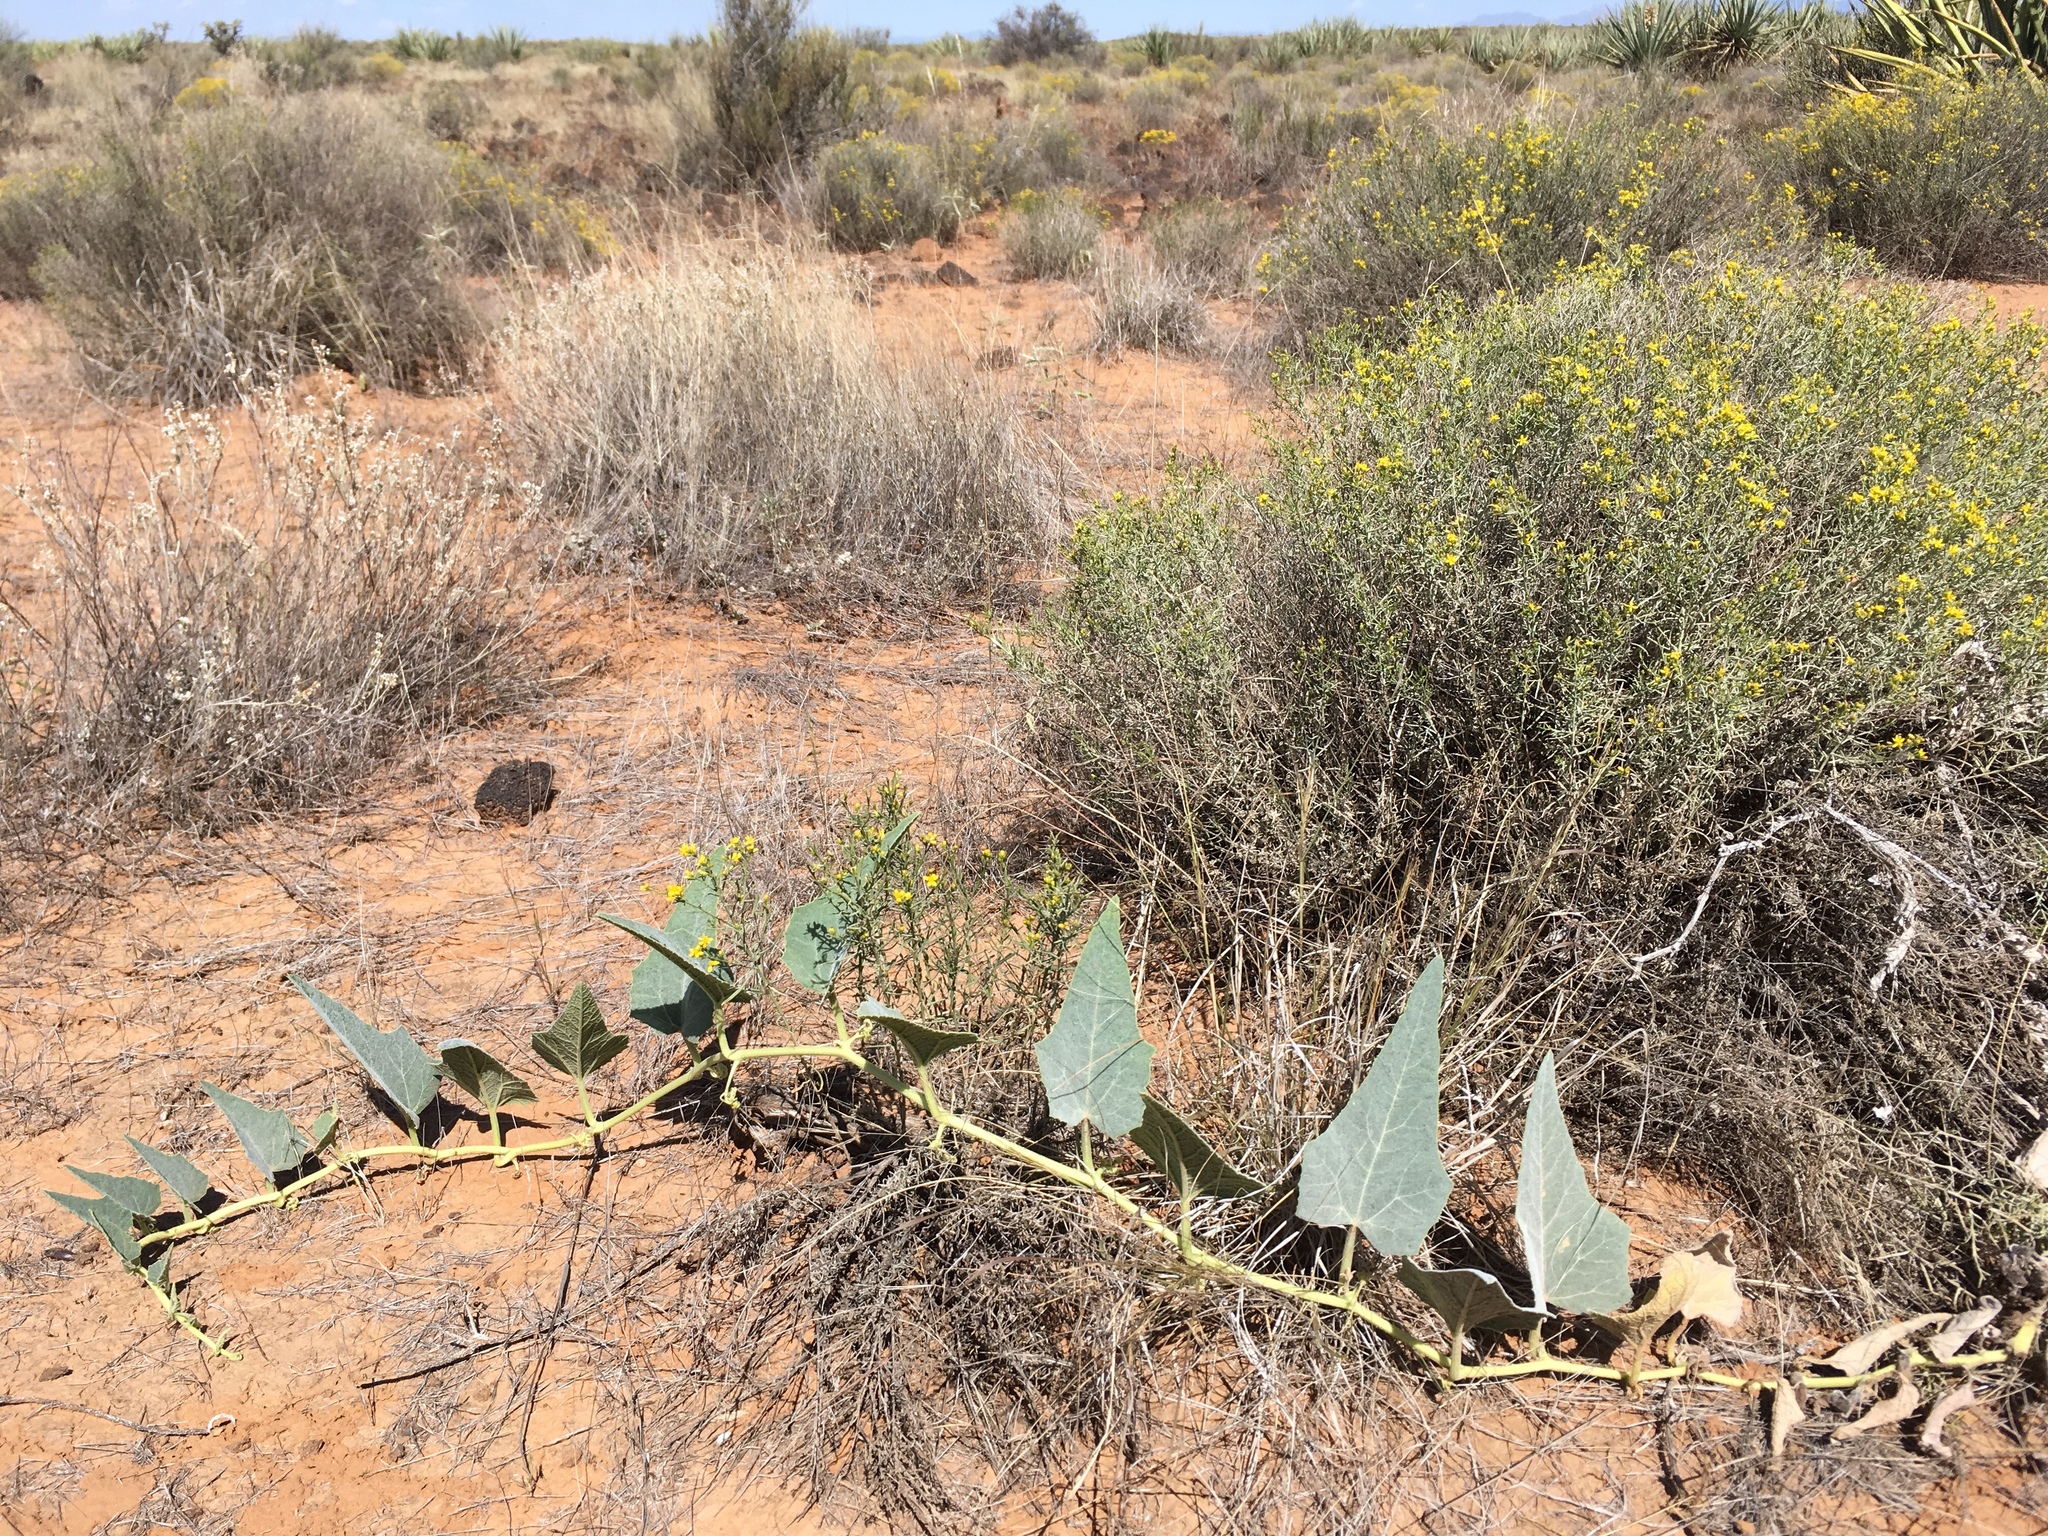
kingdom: Plantae
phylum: Tracheophyta
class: Magnoliopsida
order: Cucurbitales
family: Cucurbitaceae
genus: Cucurbita
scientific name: Cucurbita foetidissima
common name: Buffalo gourd
